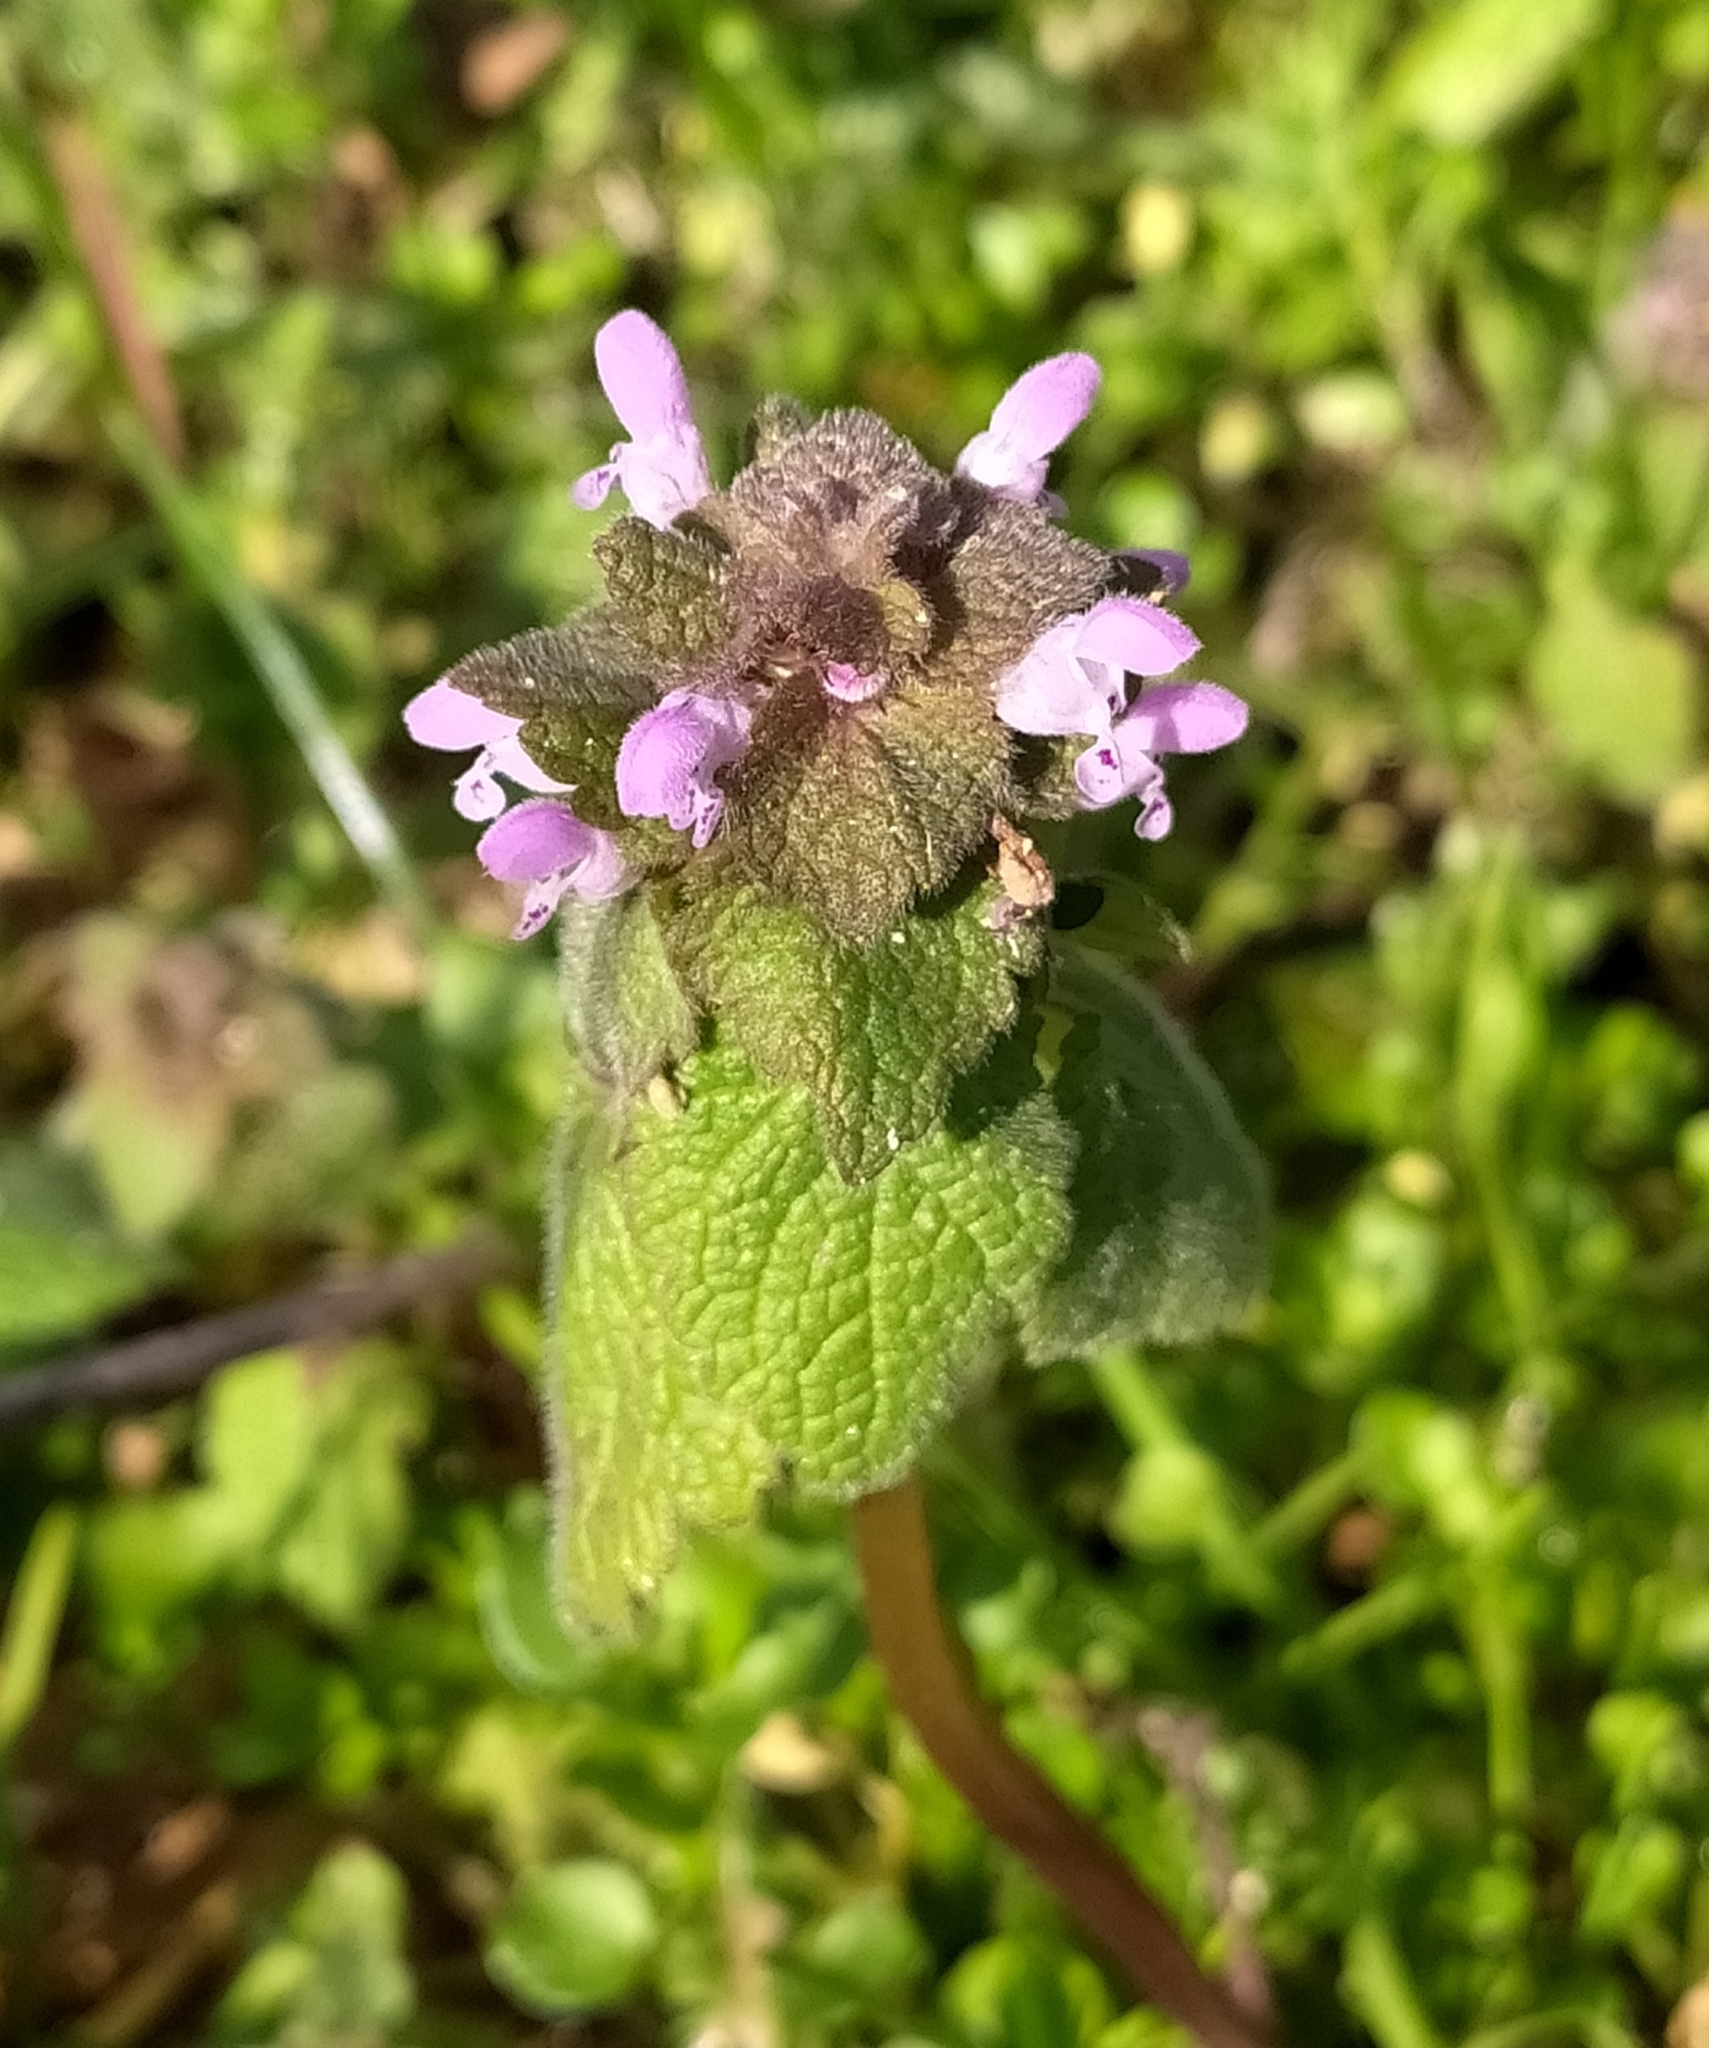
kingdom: Plantae
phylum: Tracheophyta
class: Magnoliopsida
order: Lamiales
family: Lamiaceae
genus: Lamium
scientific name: Lamium purpureum
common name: Red dead-nettle
